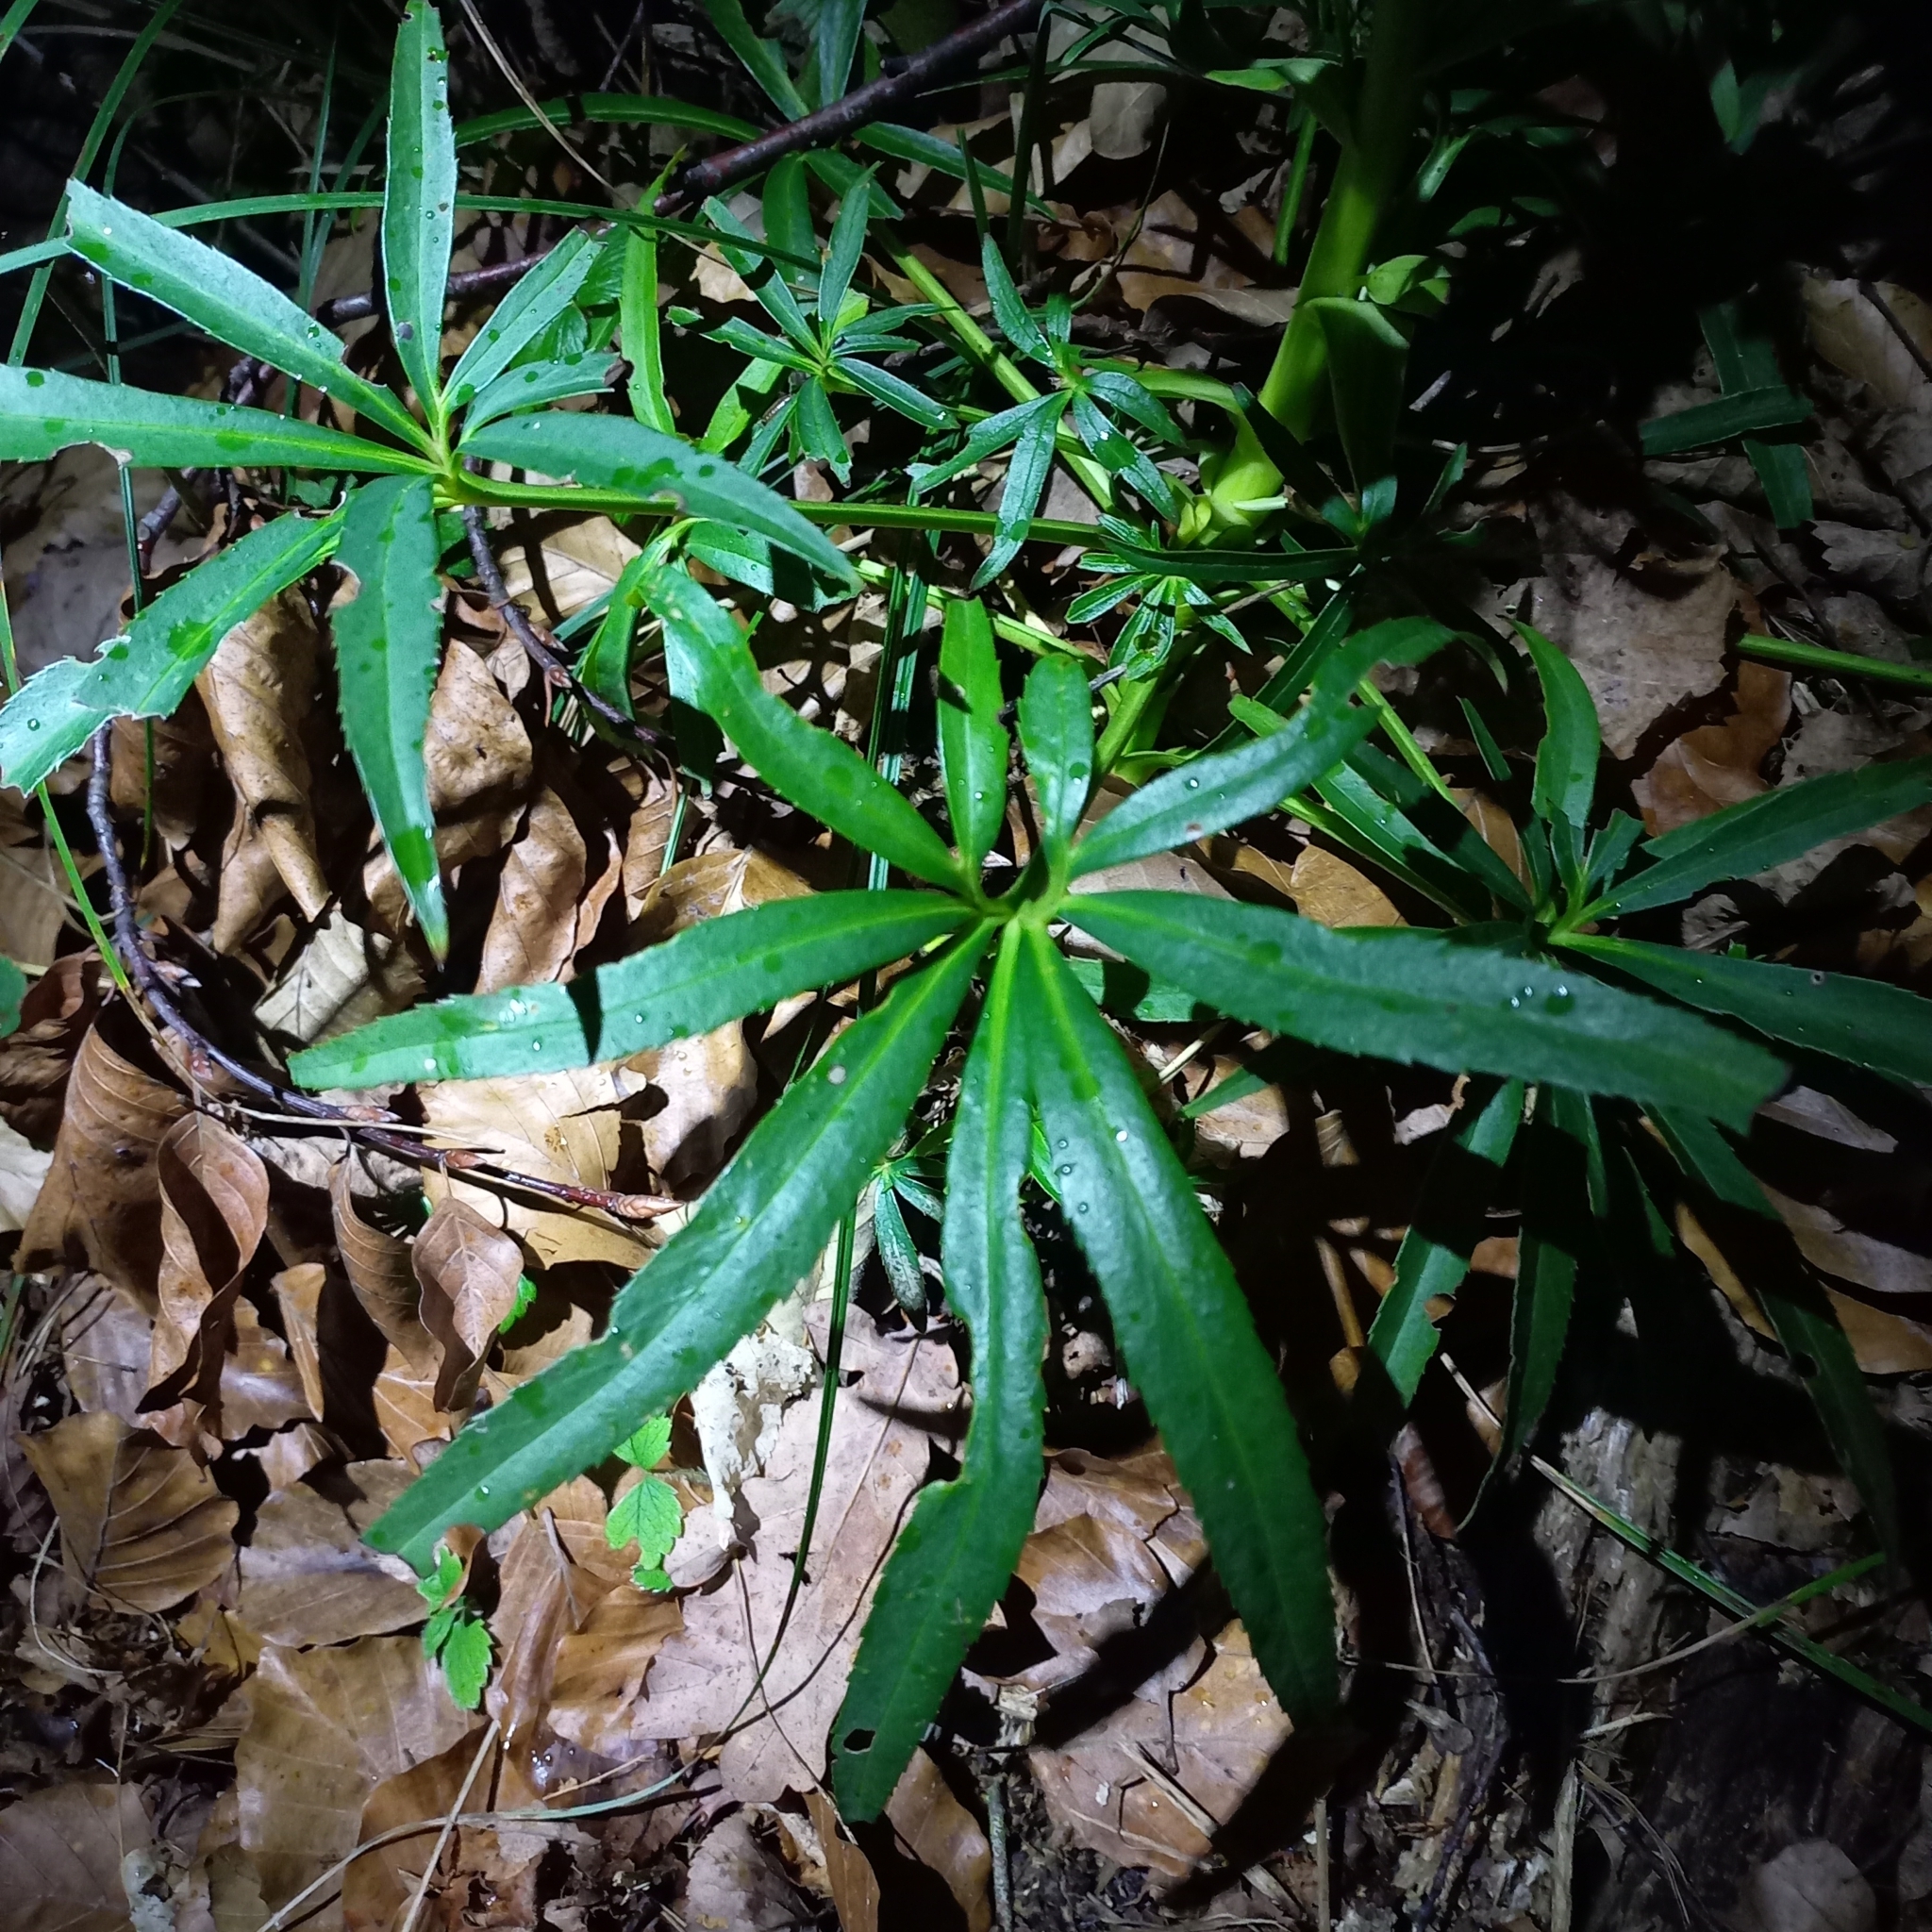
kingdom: Plantae
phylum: Tracheophyta
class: Magnoliopsida
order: Ranunculales
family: Ranunculaceae
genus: Helleborus
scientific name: Helleborus foetidus
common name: Stinking hellebore
